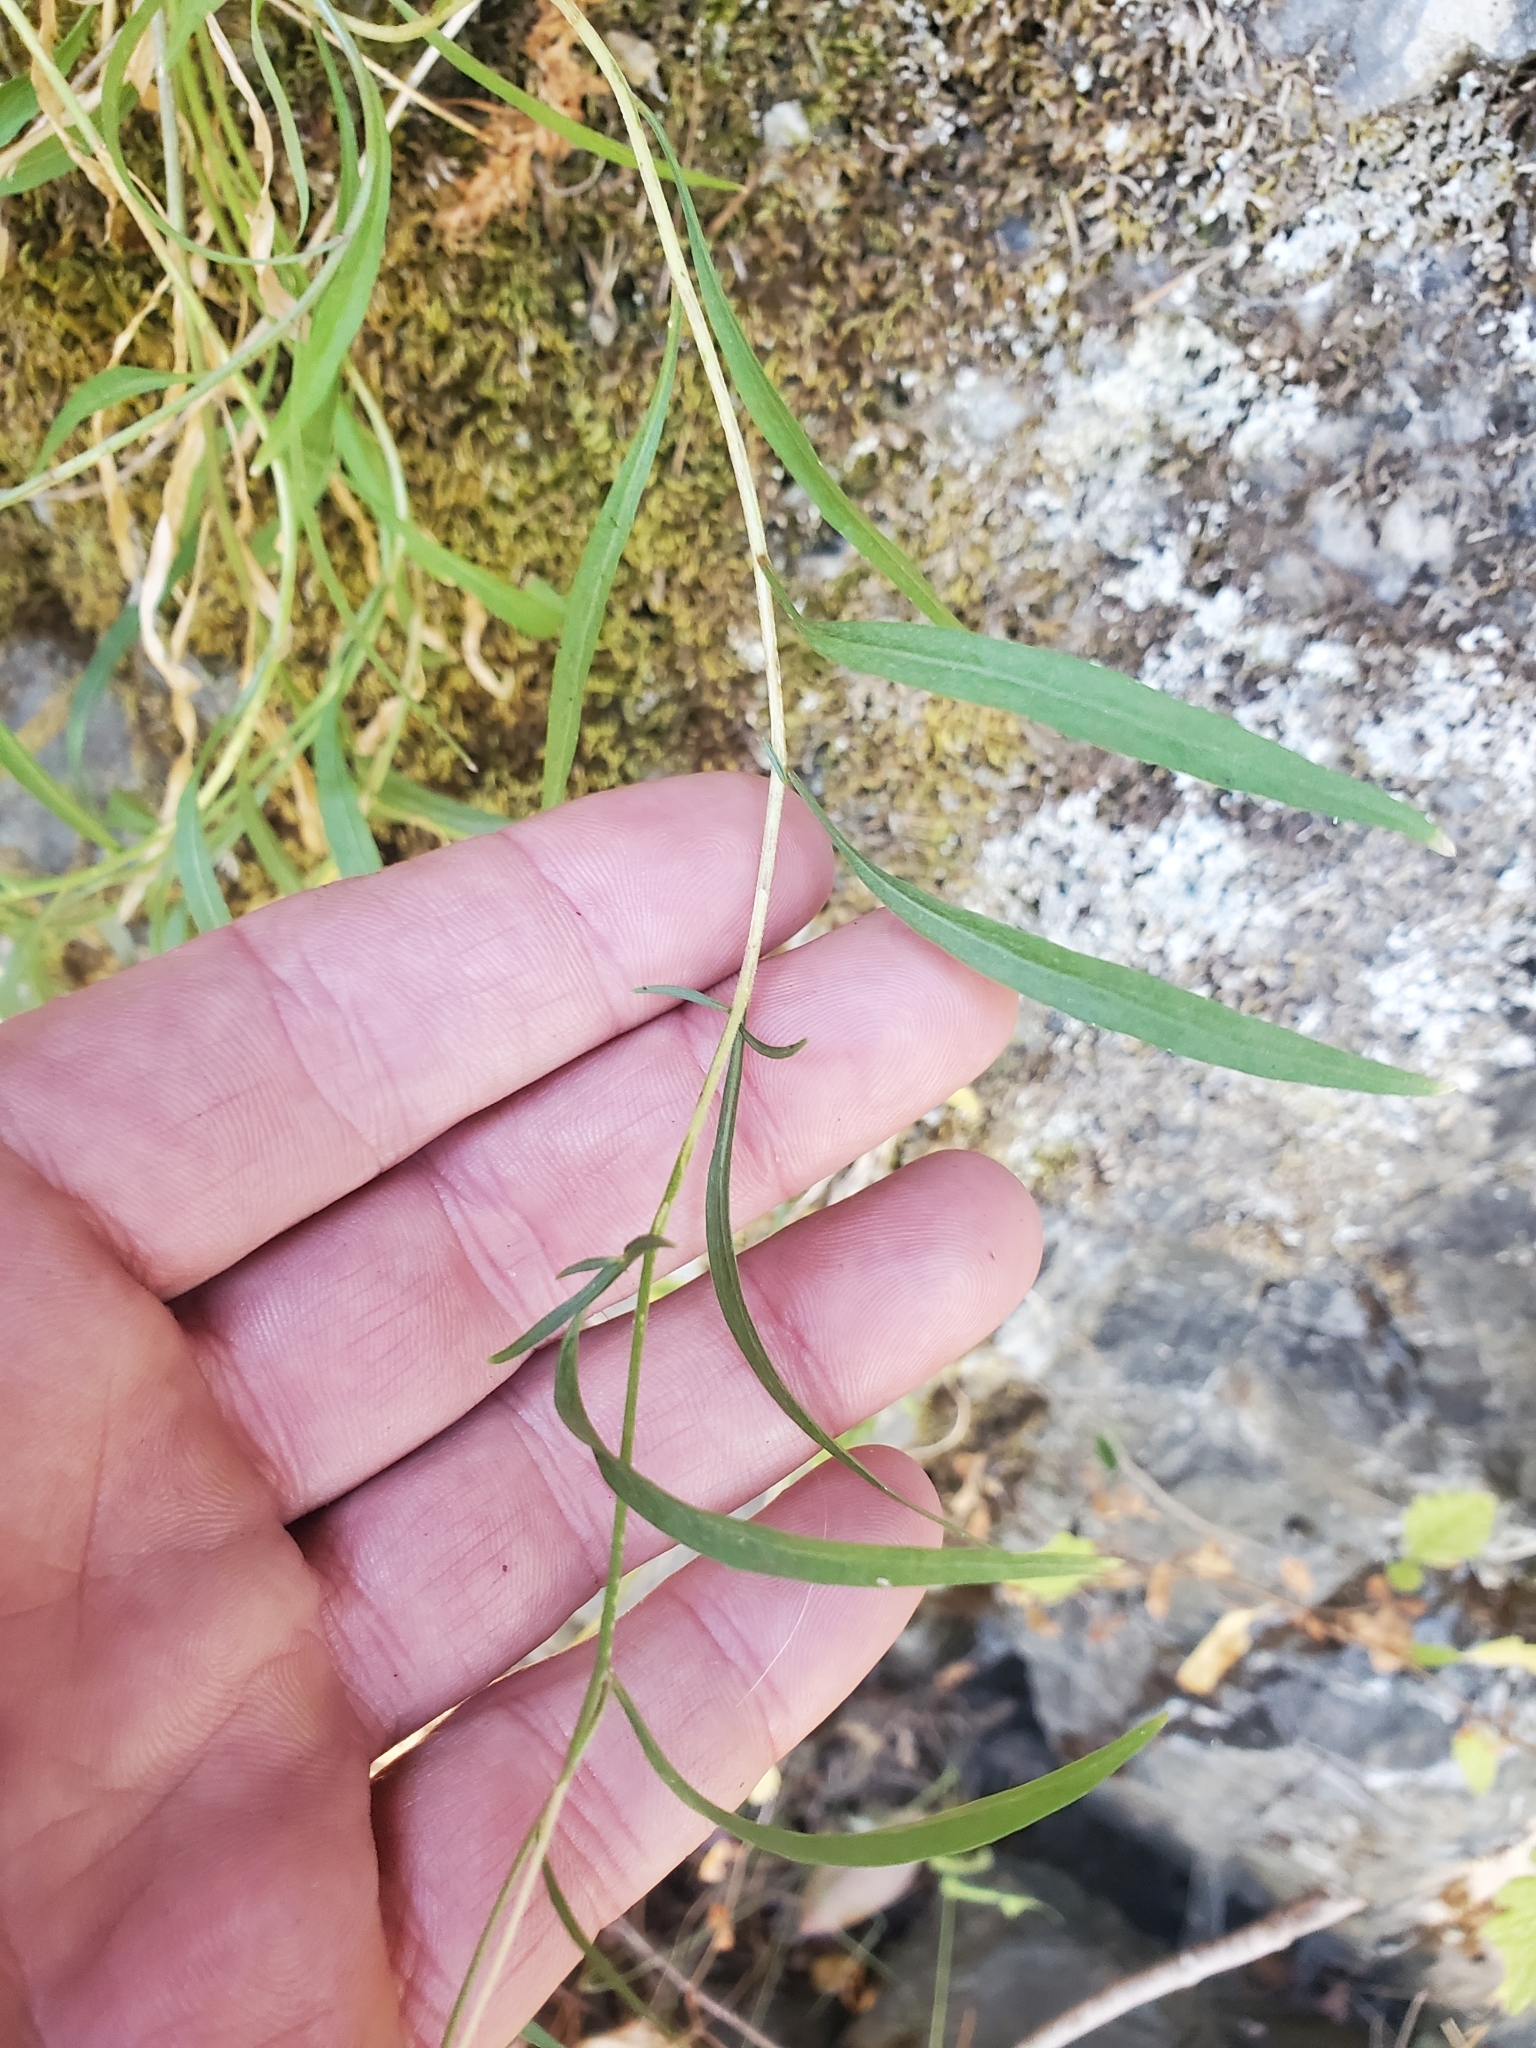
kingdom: Plantae
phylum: Tracheophyta
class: Magnoliopsida
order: Asterales
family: Campanulaceae
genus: Campanula
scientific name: Campanula alaskana
